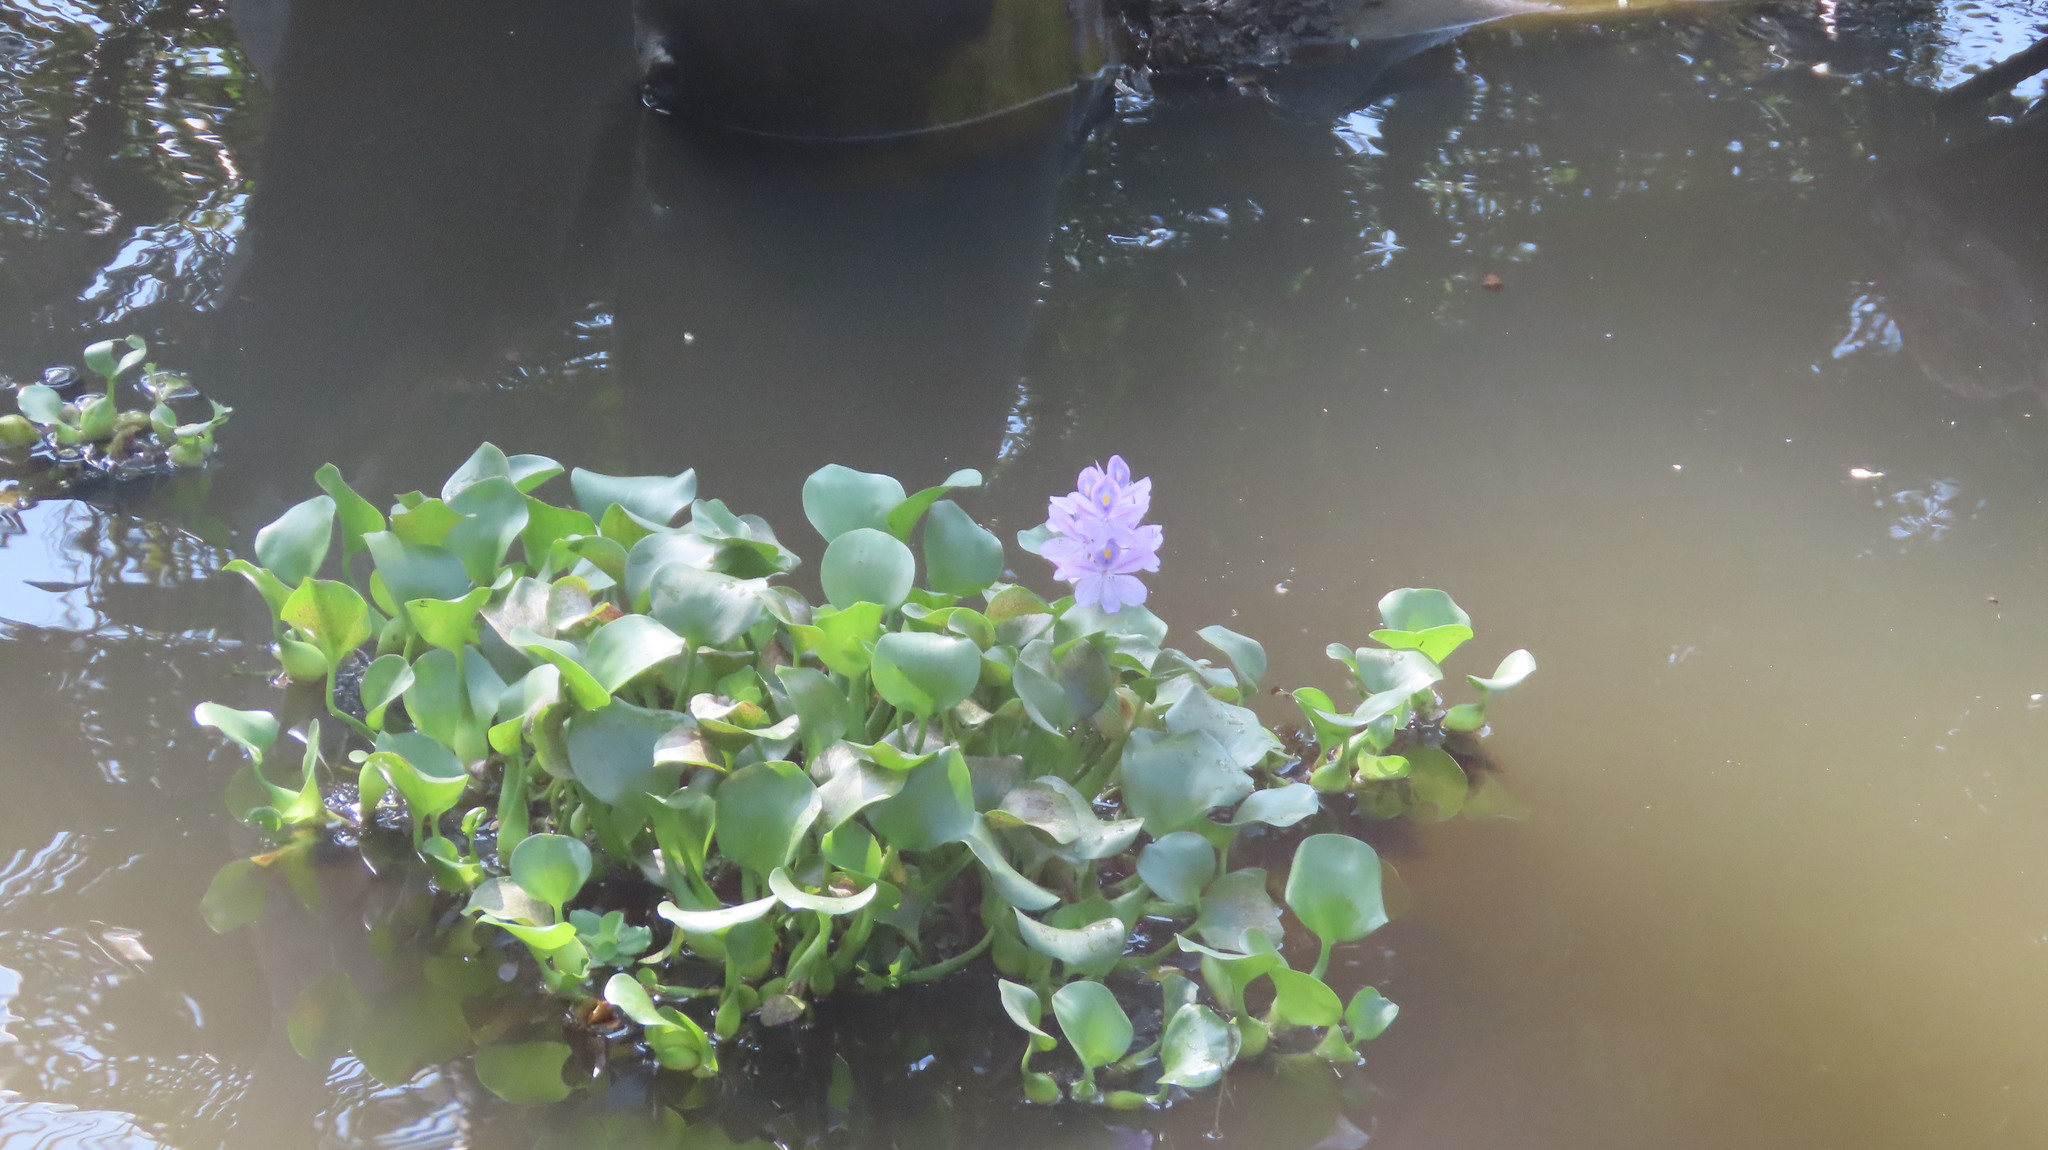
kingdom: Plantae
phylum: Tracheophyta
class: Liliopsida
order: Commelinales
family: Pontederiaceae
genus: Pontederia
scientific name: Pontederia crassipes
